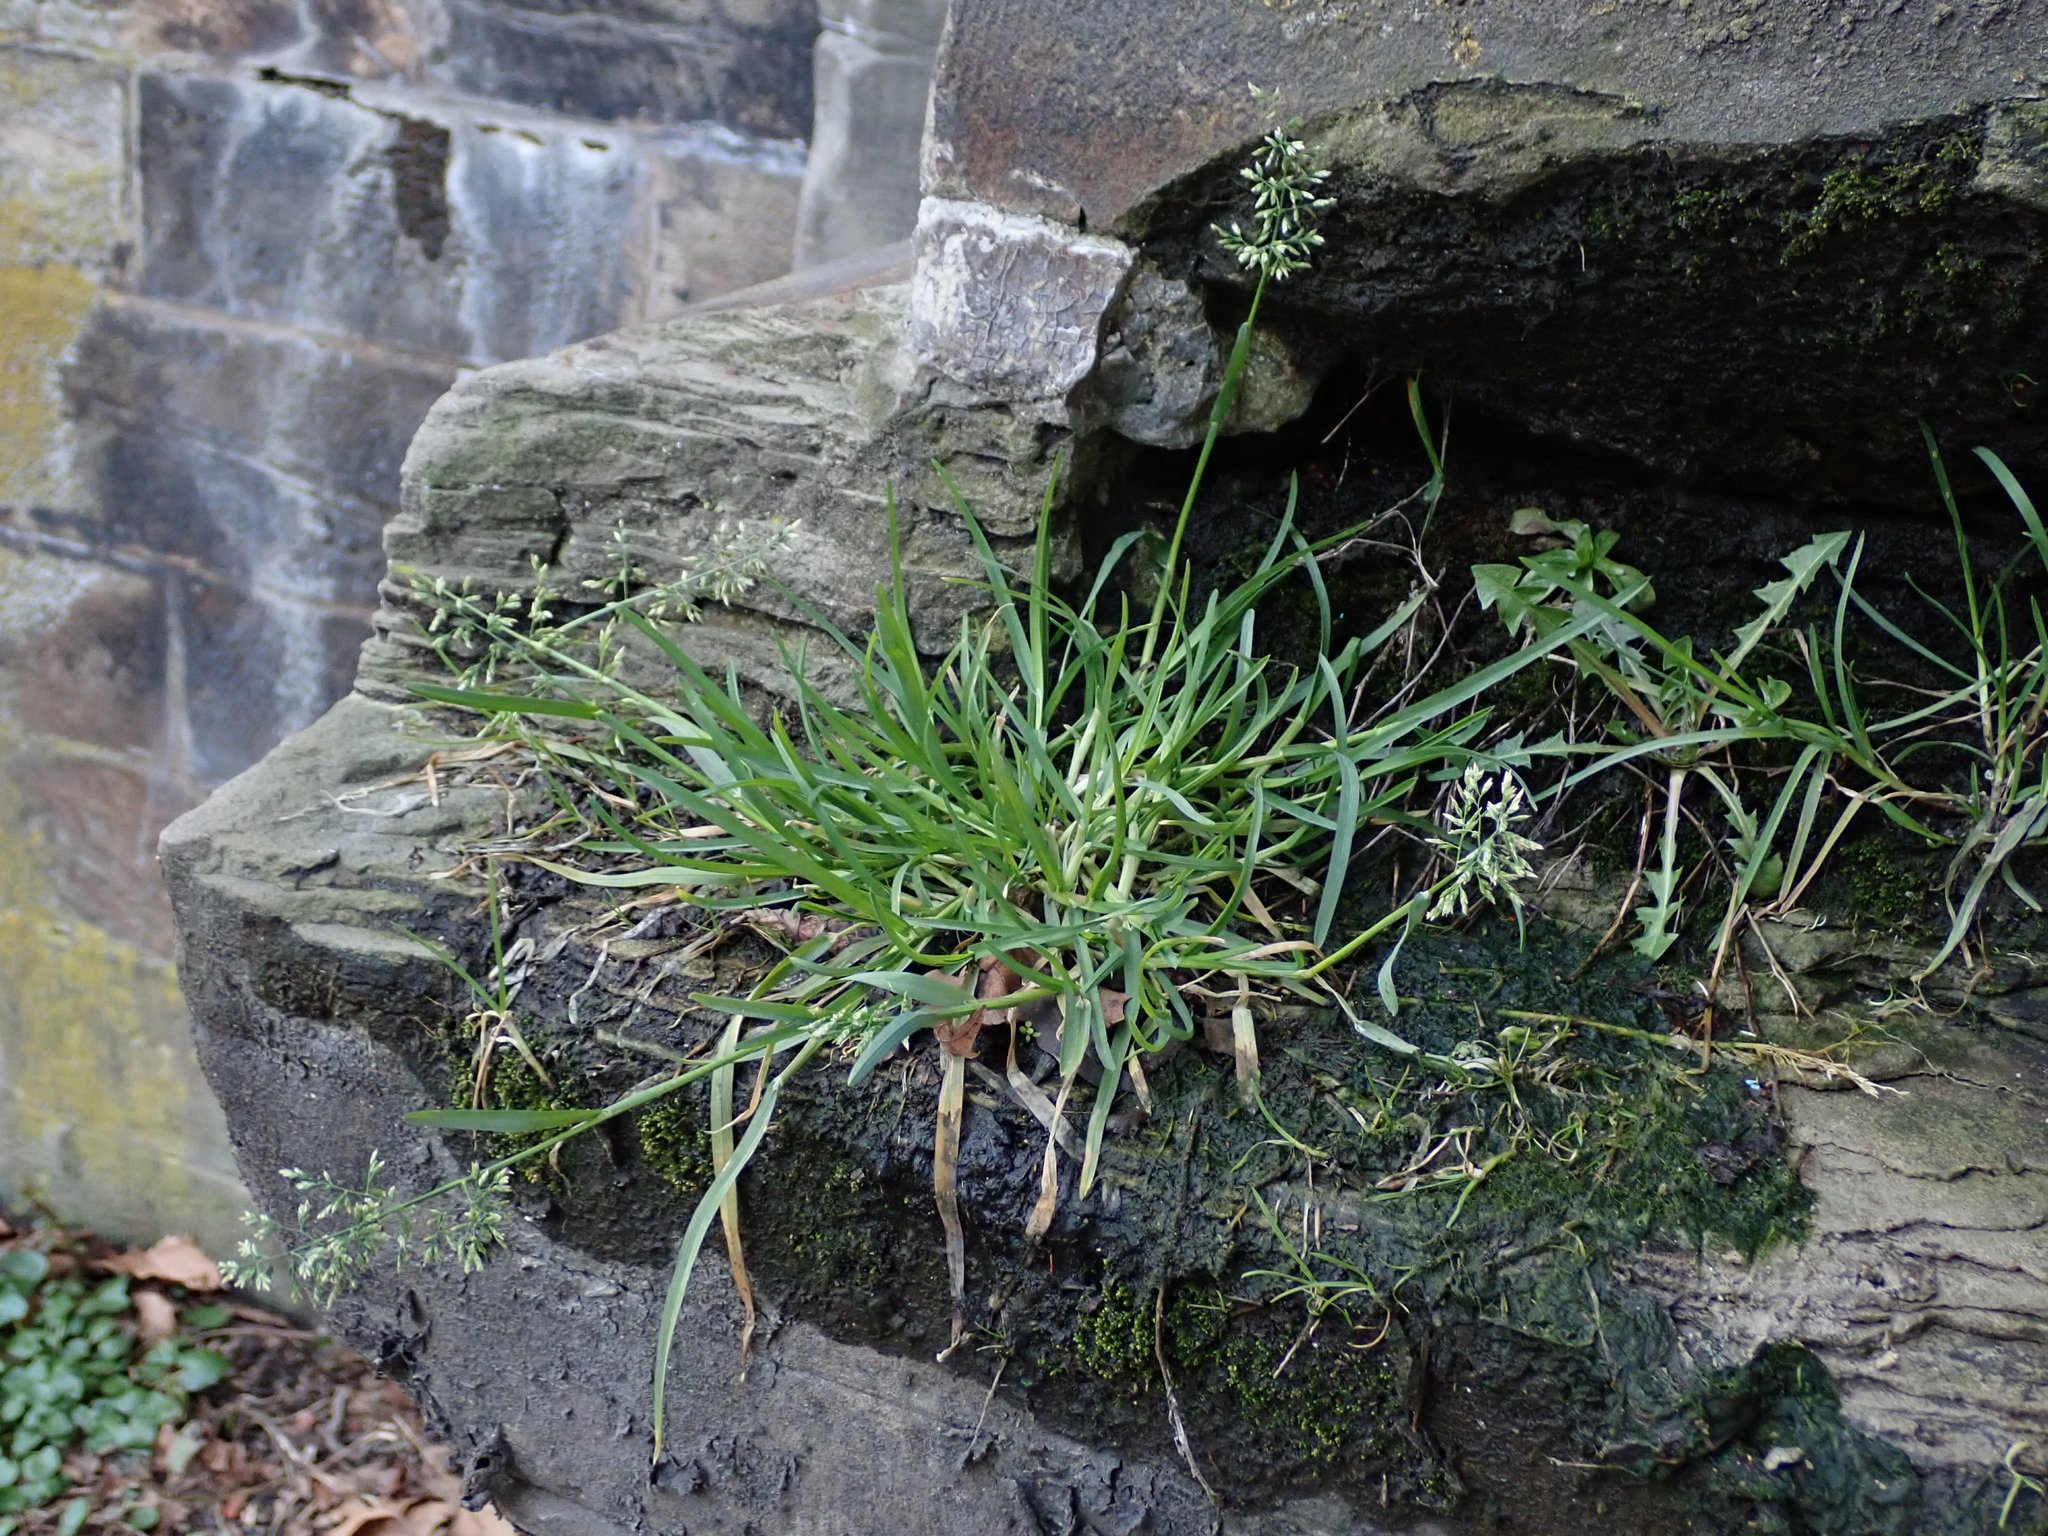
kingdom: Plantae
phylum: Tracheophyta
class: Liliopsida
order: Poales
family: Poaceae
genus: Poa
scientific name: Poa annua
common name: Annual bluegrass
